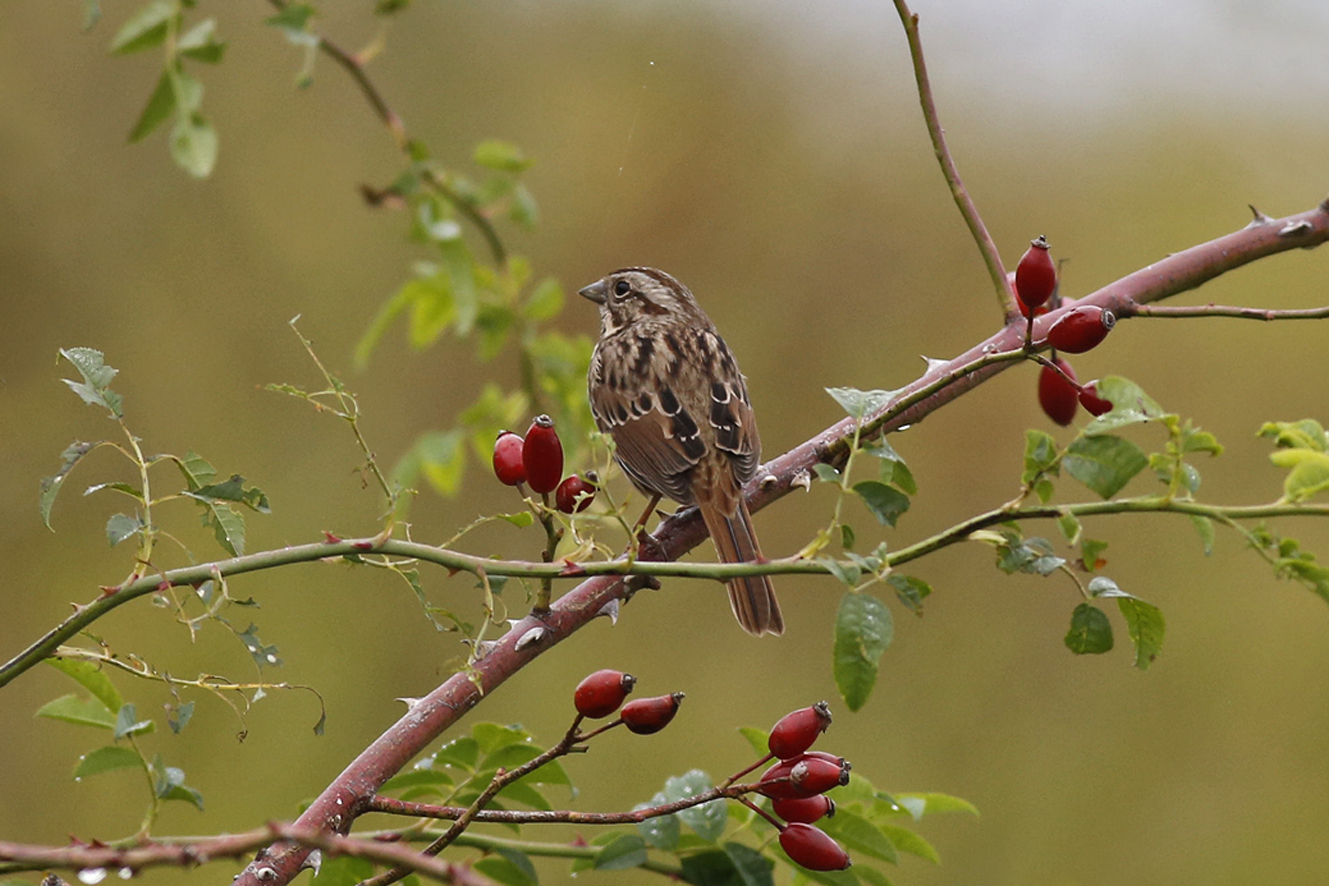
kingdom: Animalia
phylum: Chordata
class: Aves
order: Passeriformes
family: Passerellidae
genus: Melospiza
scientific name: Melospiza melodia
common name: Song sparrow
